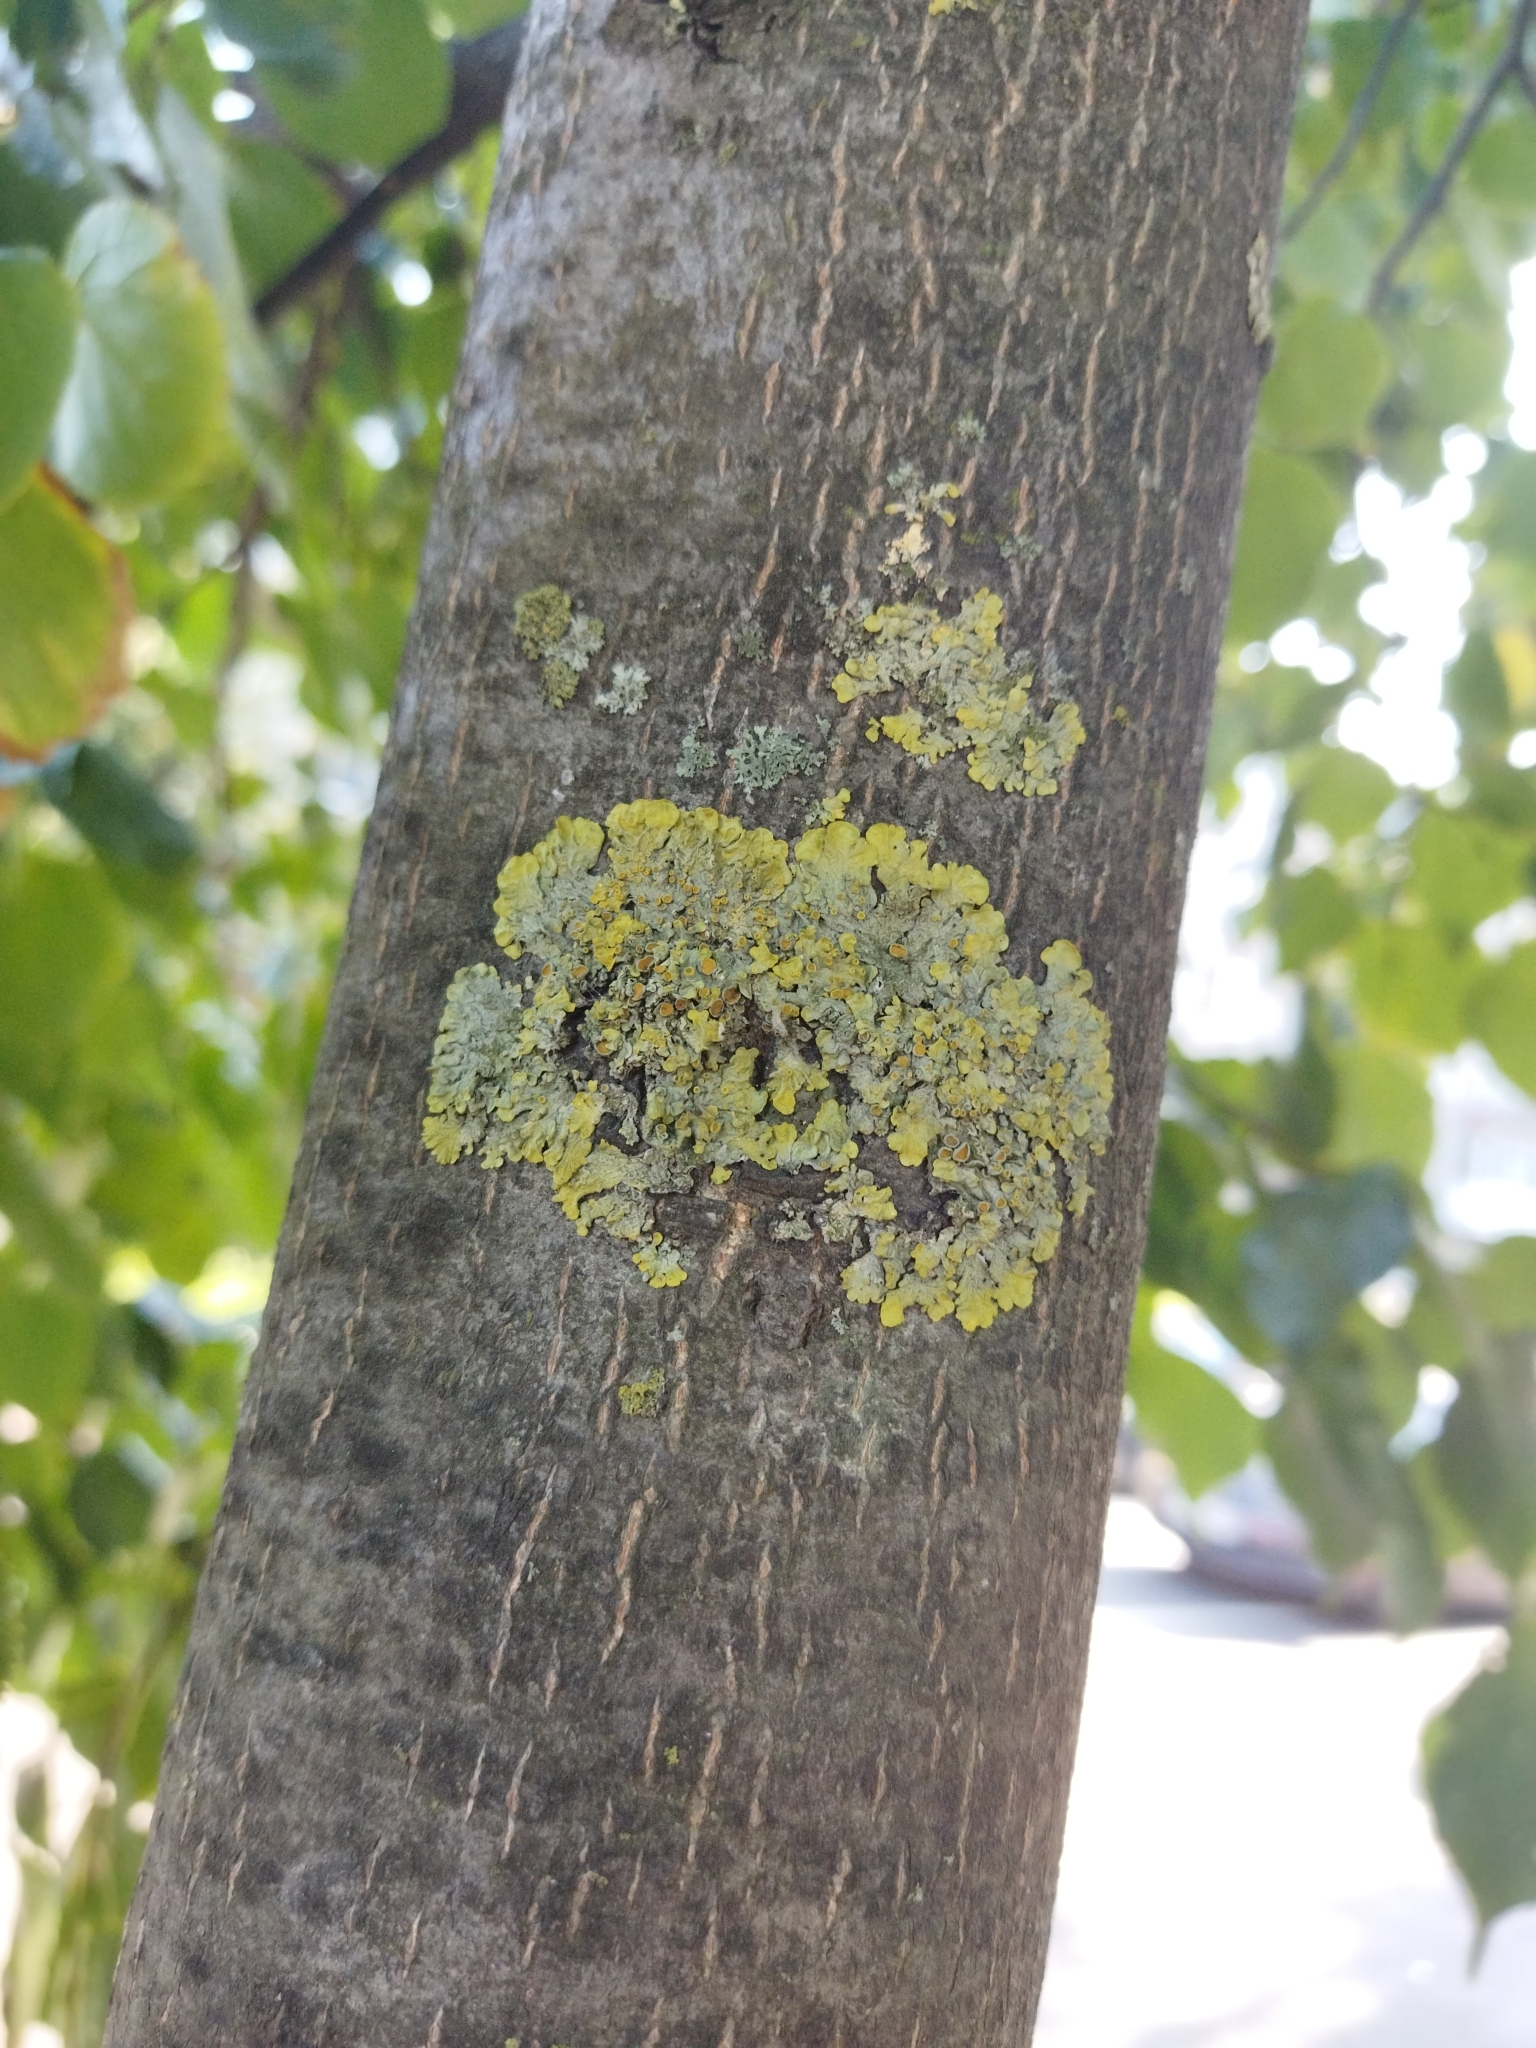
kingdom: Fungi
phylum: Ascomycota
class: Lecanoromycetes
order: Teloschistales
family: Teloschistaceae
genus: Xanthoria
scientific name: Xanthoria parietina
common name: Common orange lichen
